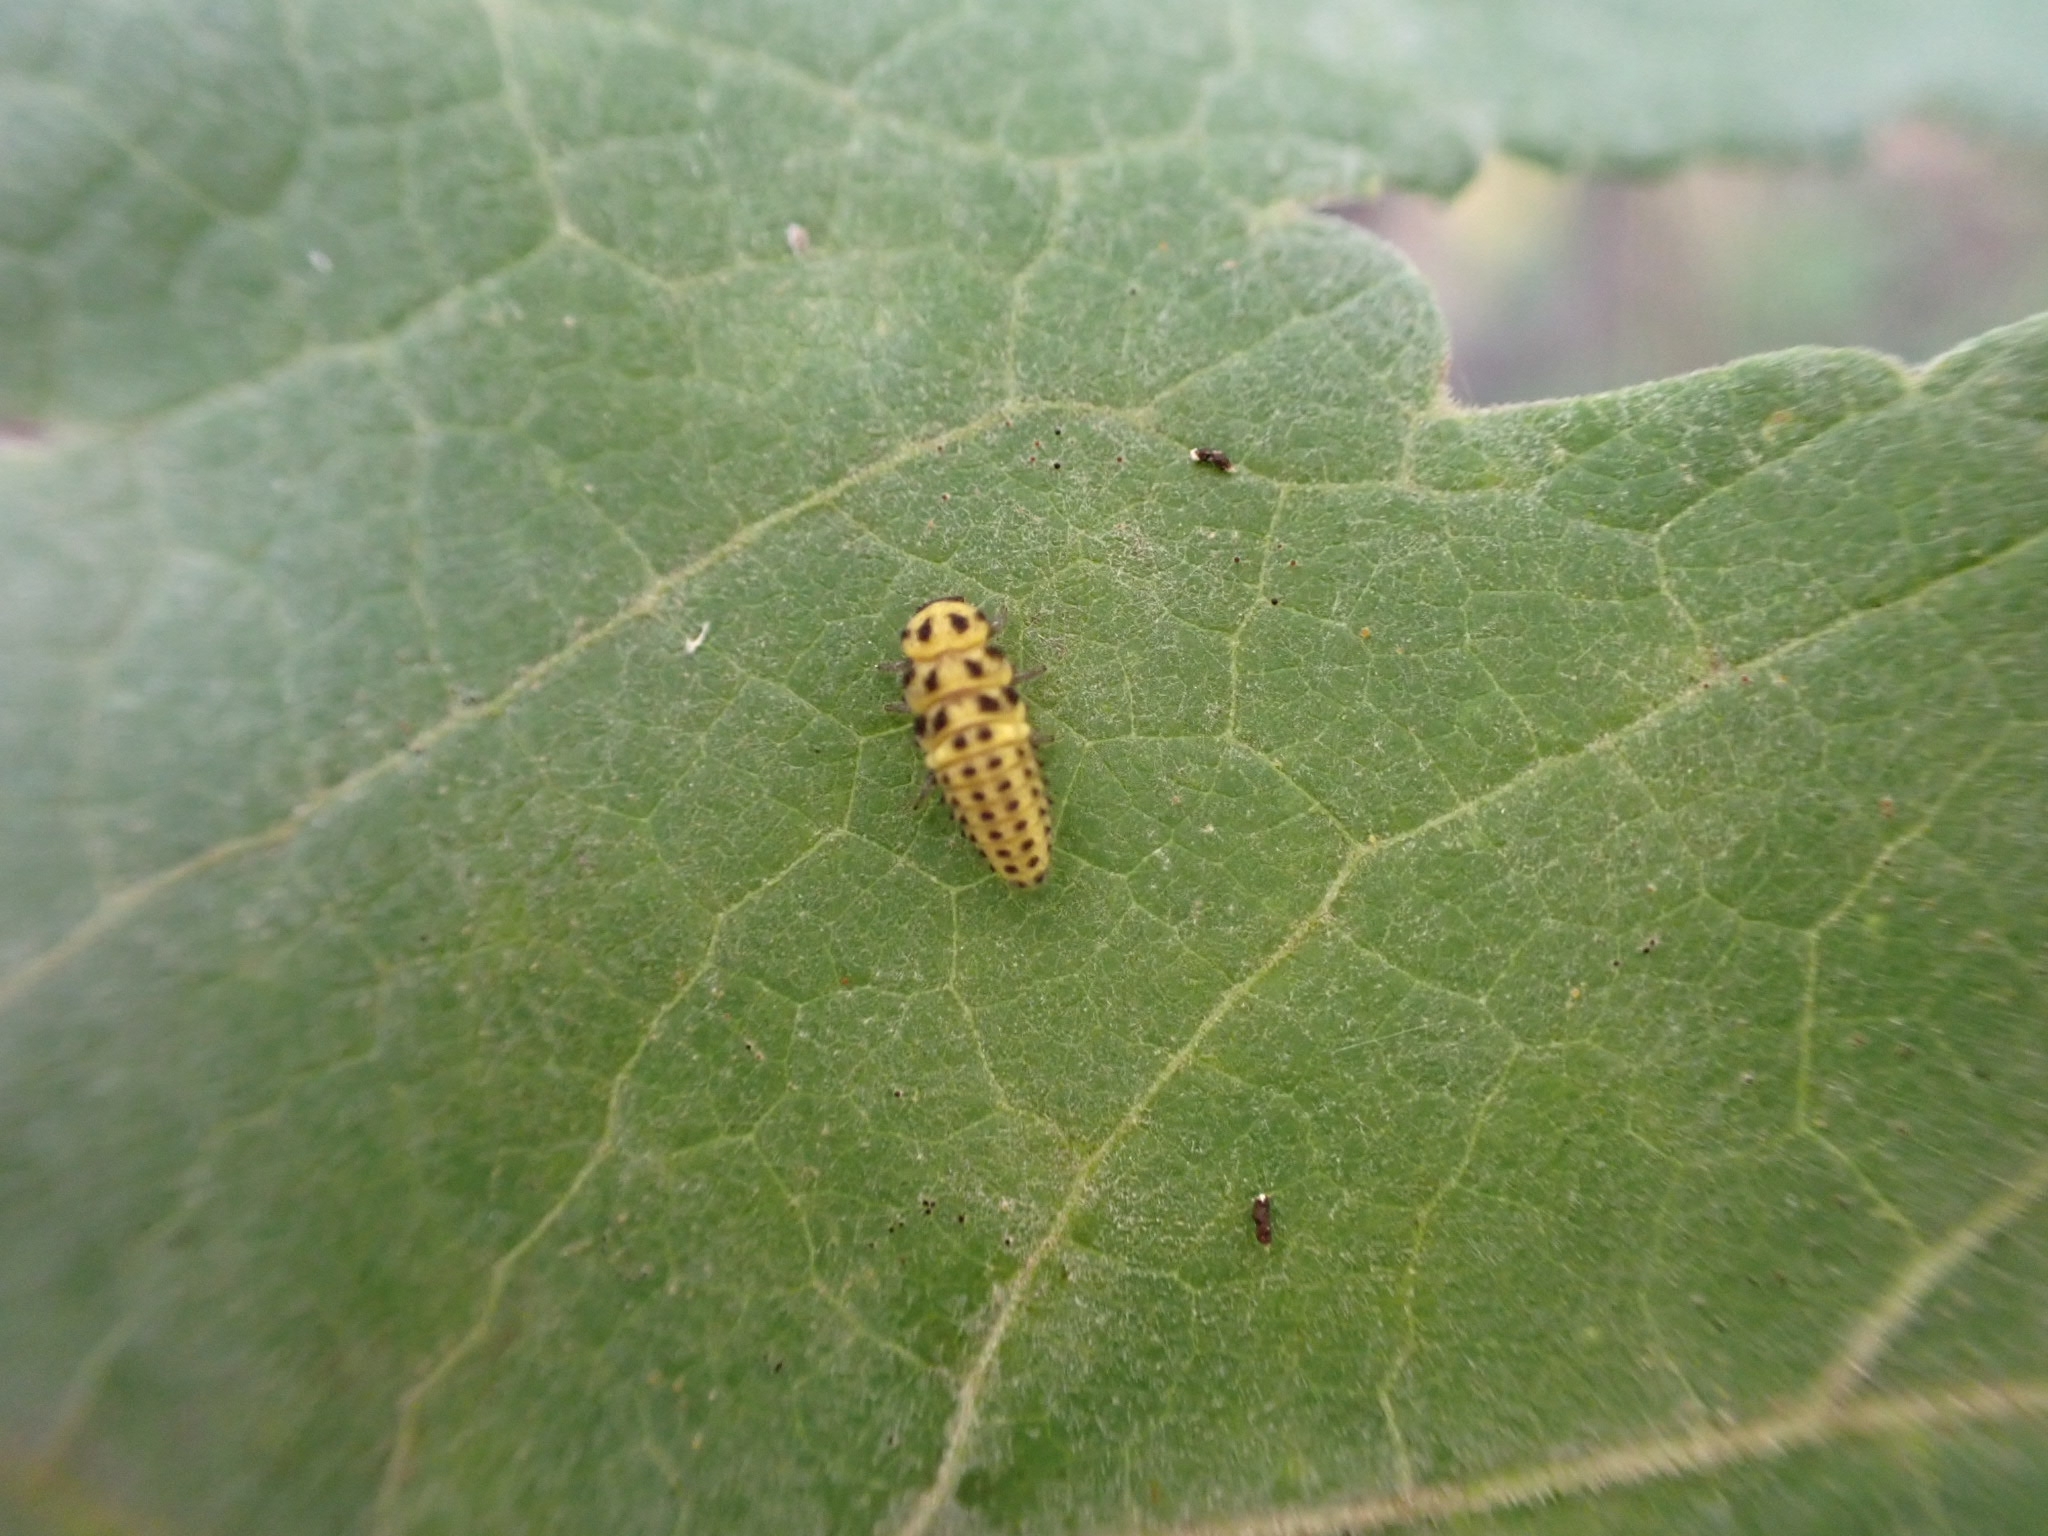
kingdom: Animalia
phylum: Arthropoda
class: Insecta
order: Coleoptera
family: Coccinellidae
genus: Psyllobora
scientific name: Psyllobora vigintiduopunctata
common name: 22-spot ladybird
